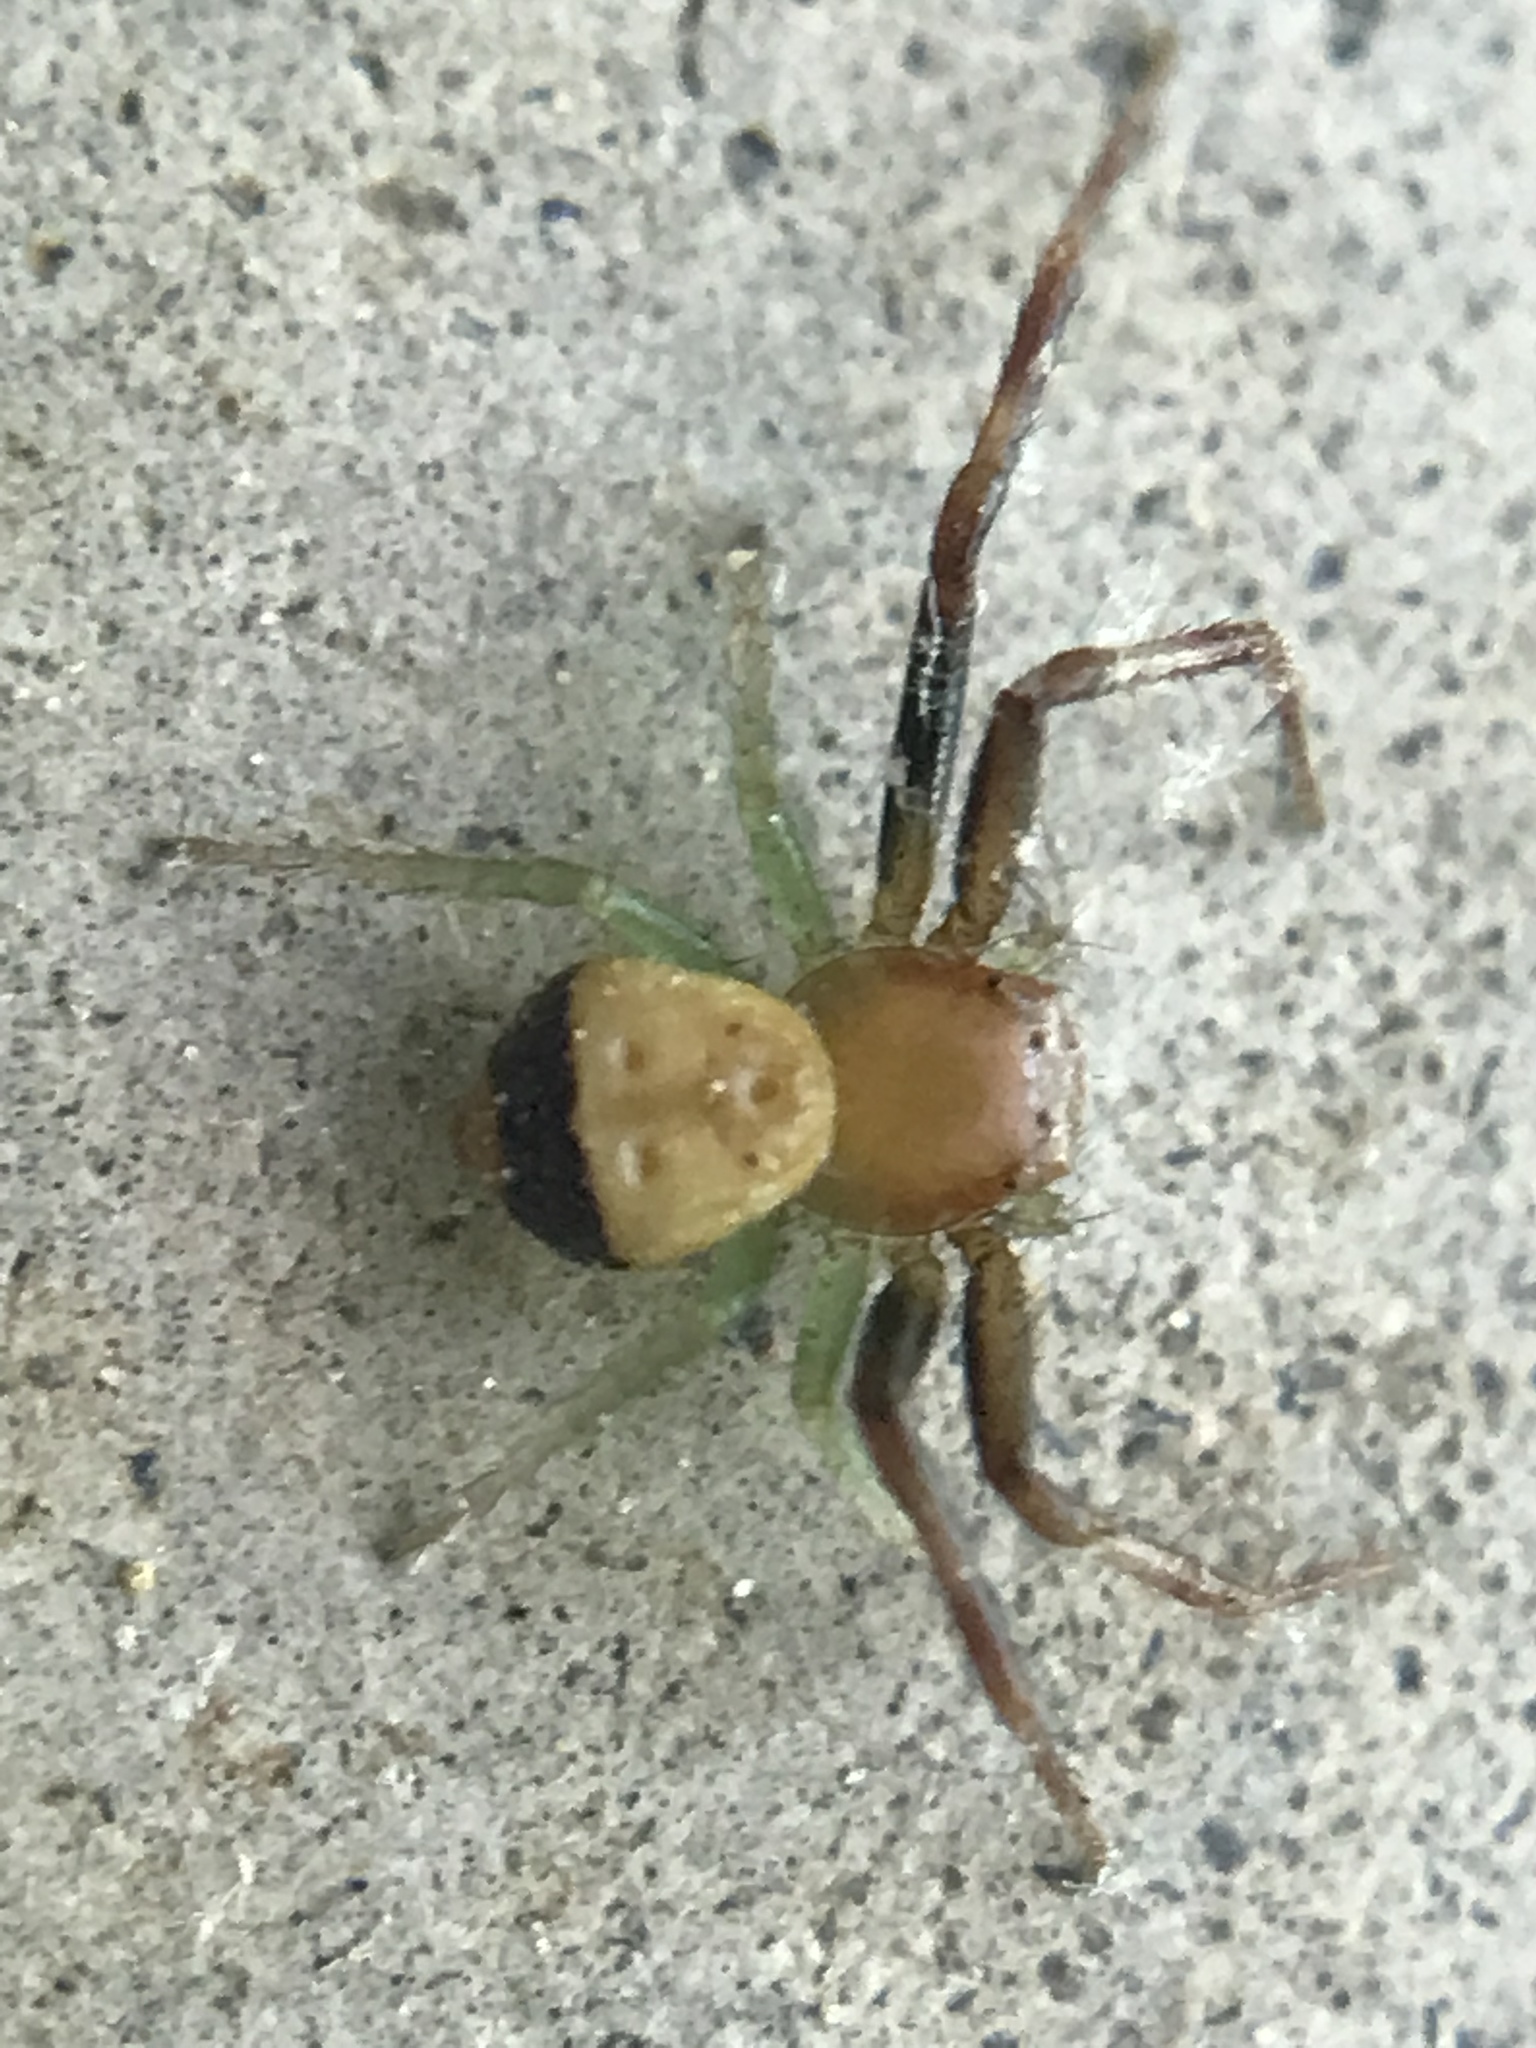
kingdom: Animalia
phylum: Arthropoda
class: Arachnida
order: Araneae
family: Thomisidae
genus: Synema
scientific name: Synema parvulum
